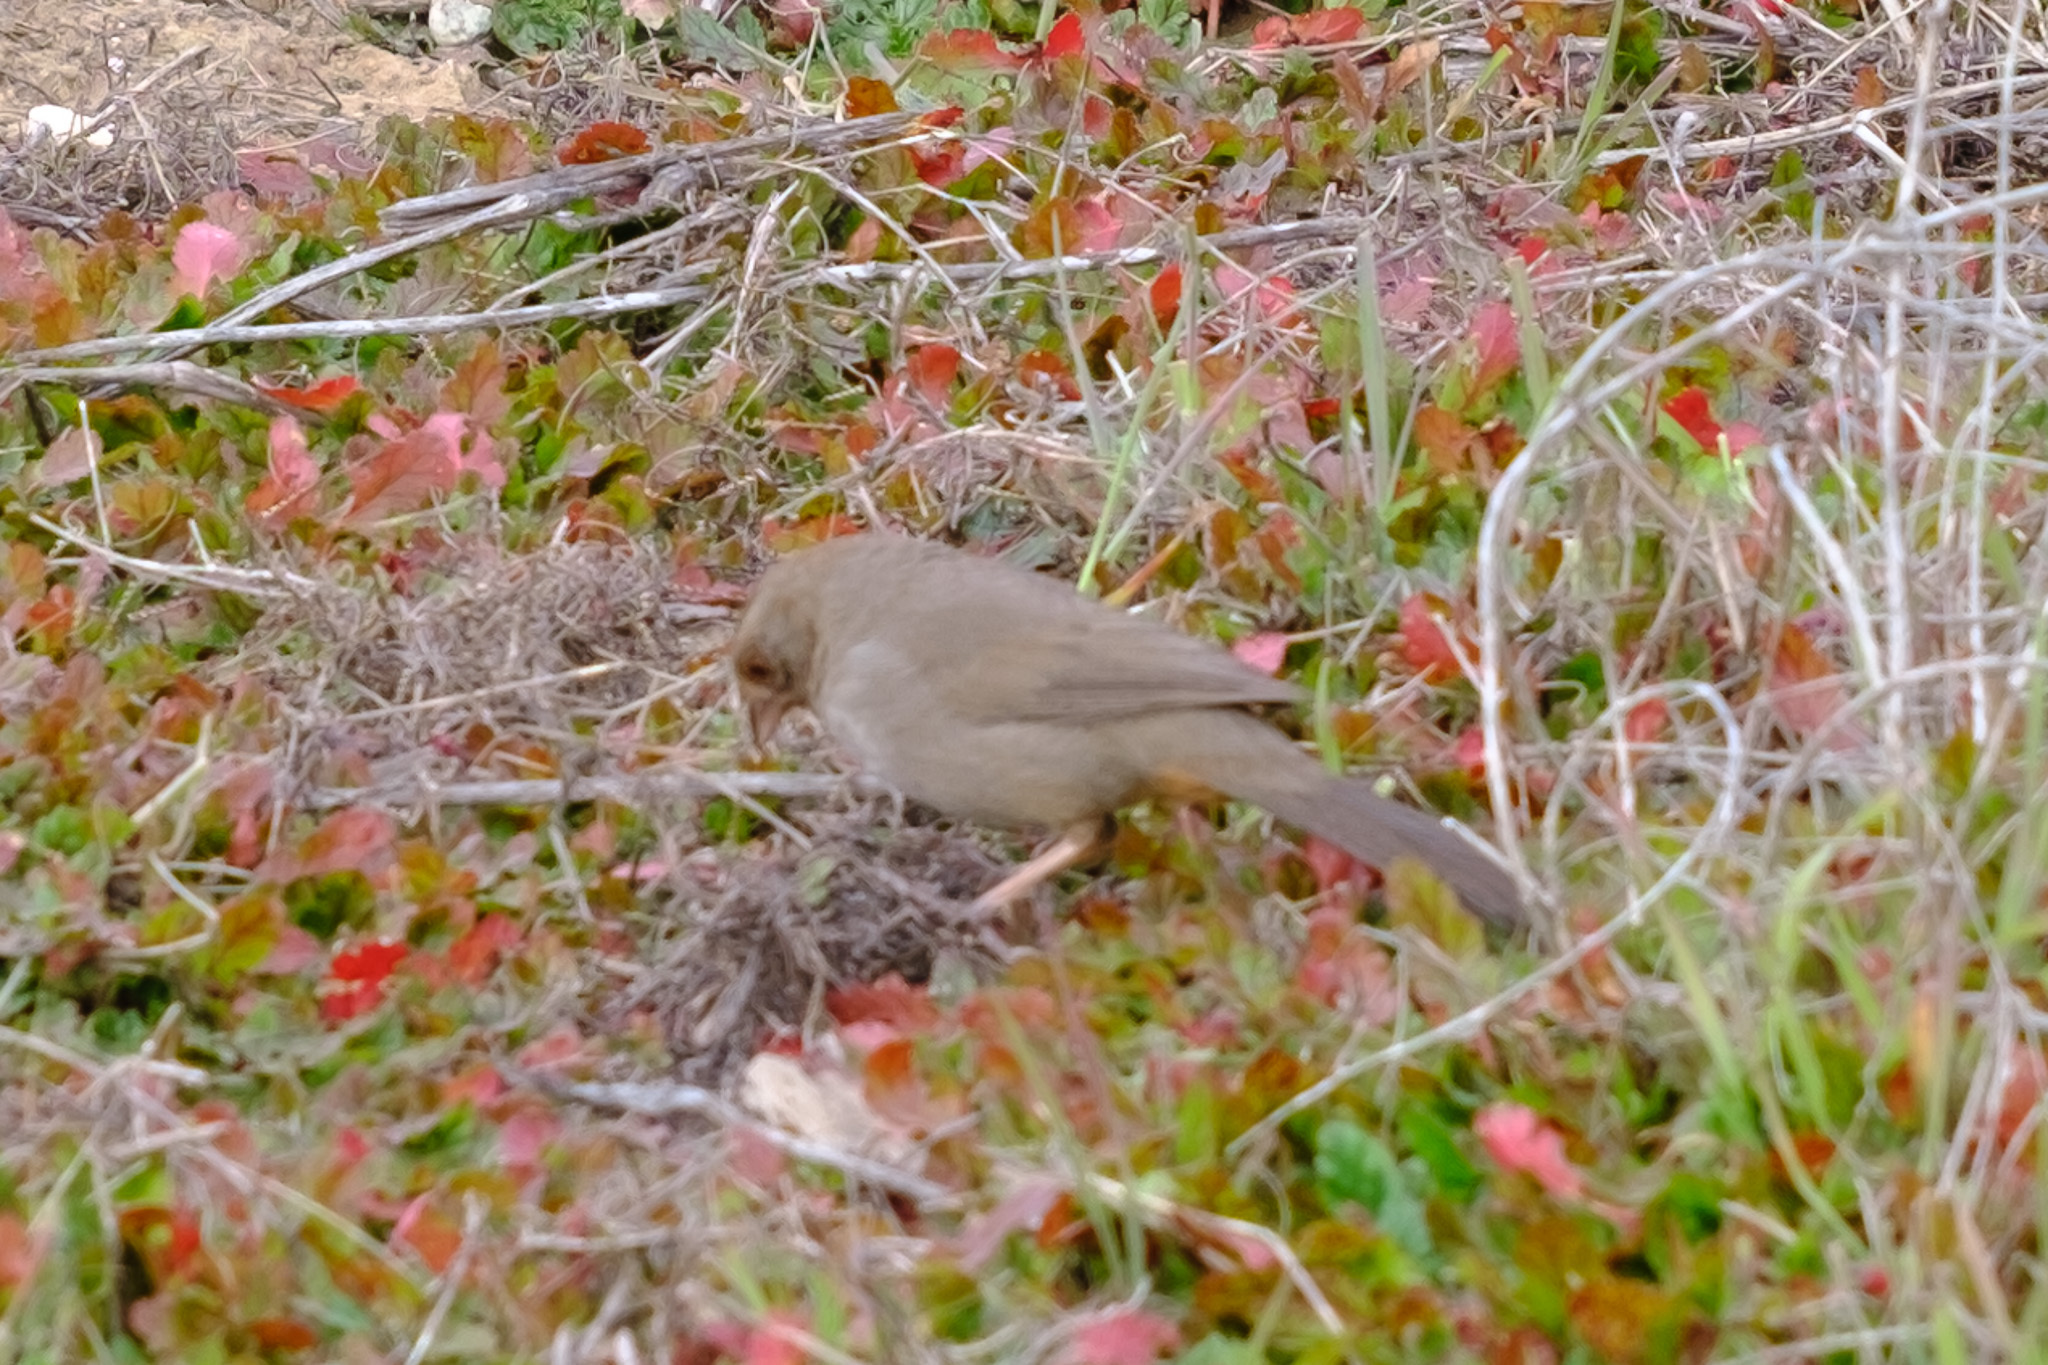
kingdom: Animalia
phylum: Chordata
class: Aves
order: Passeriformes
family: Passerellidae
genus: Melozone
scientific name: Melozone crissalis
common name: California towhee
